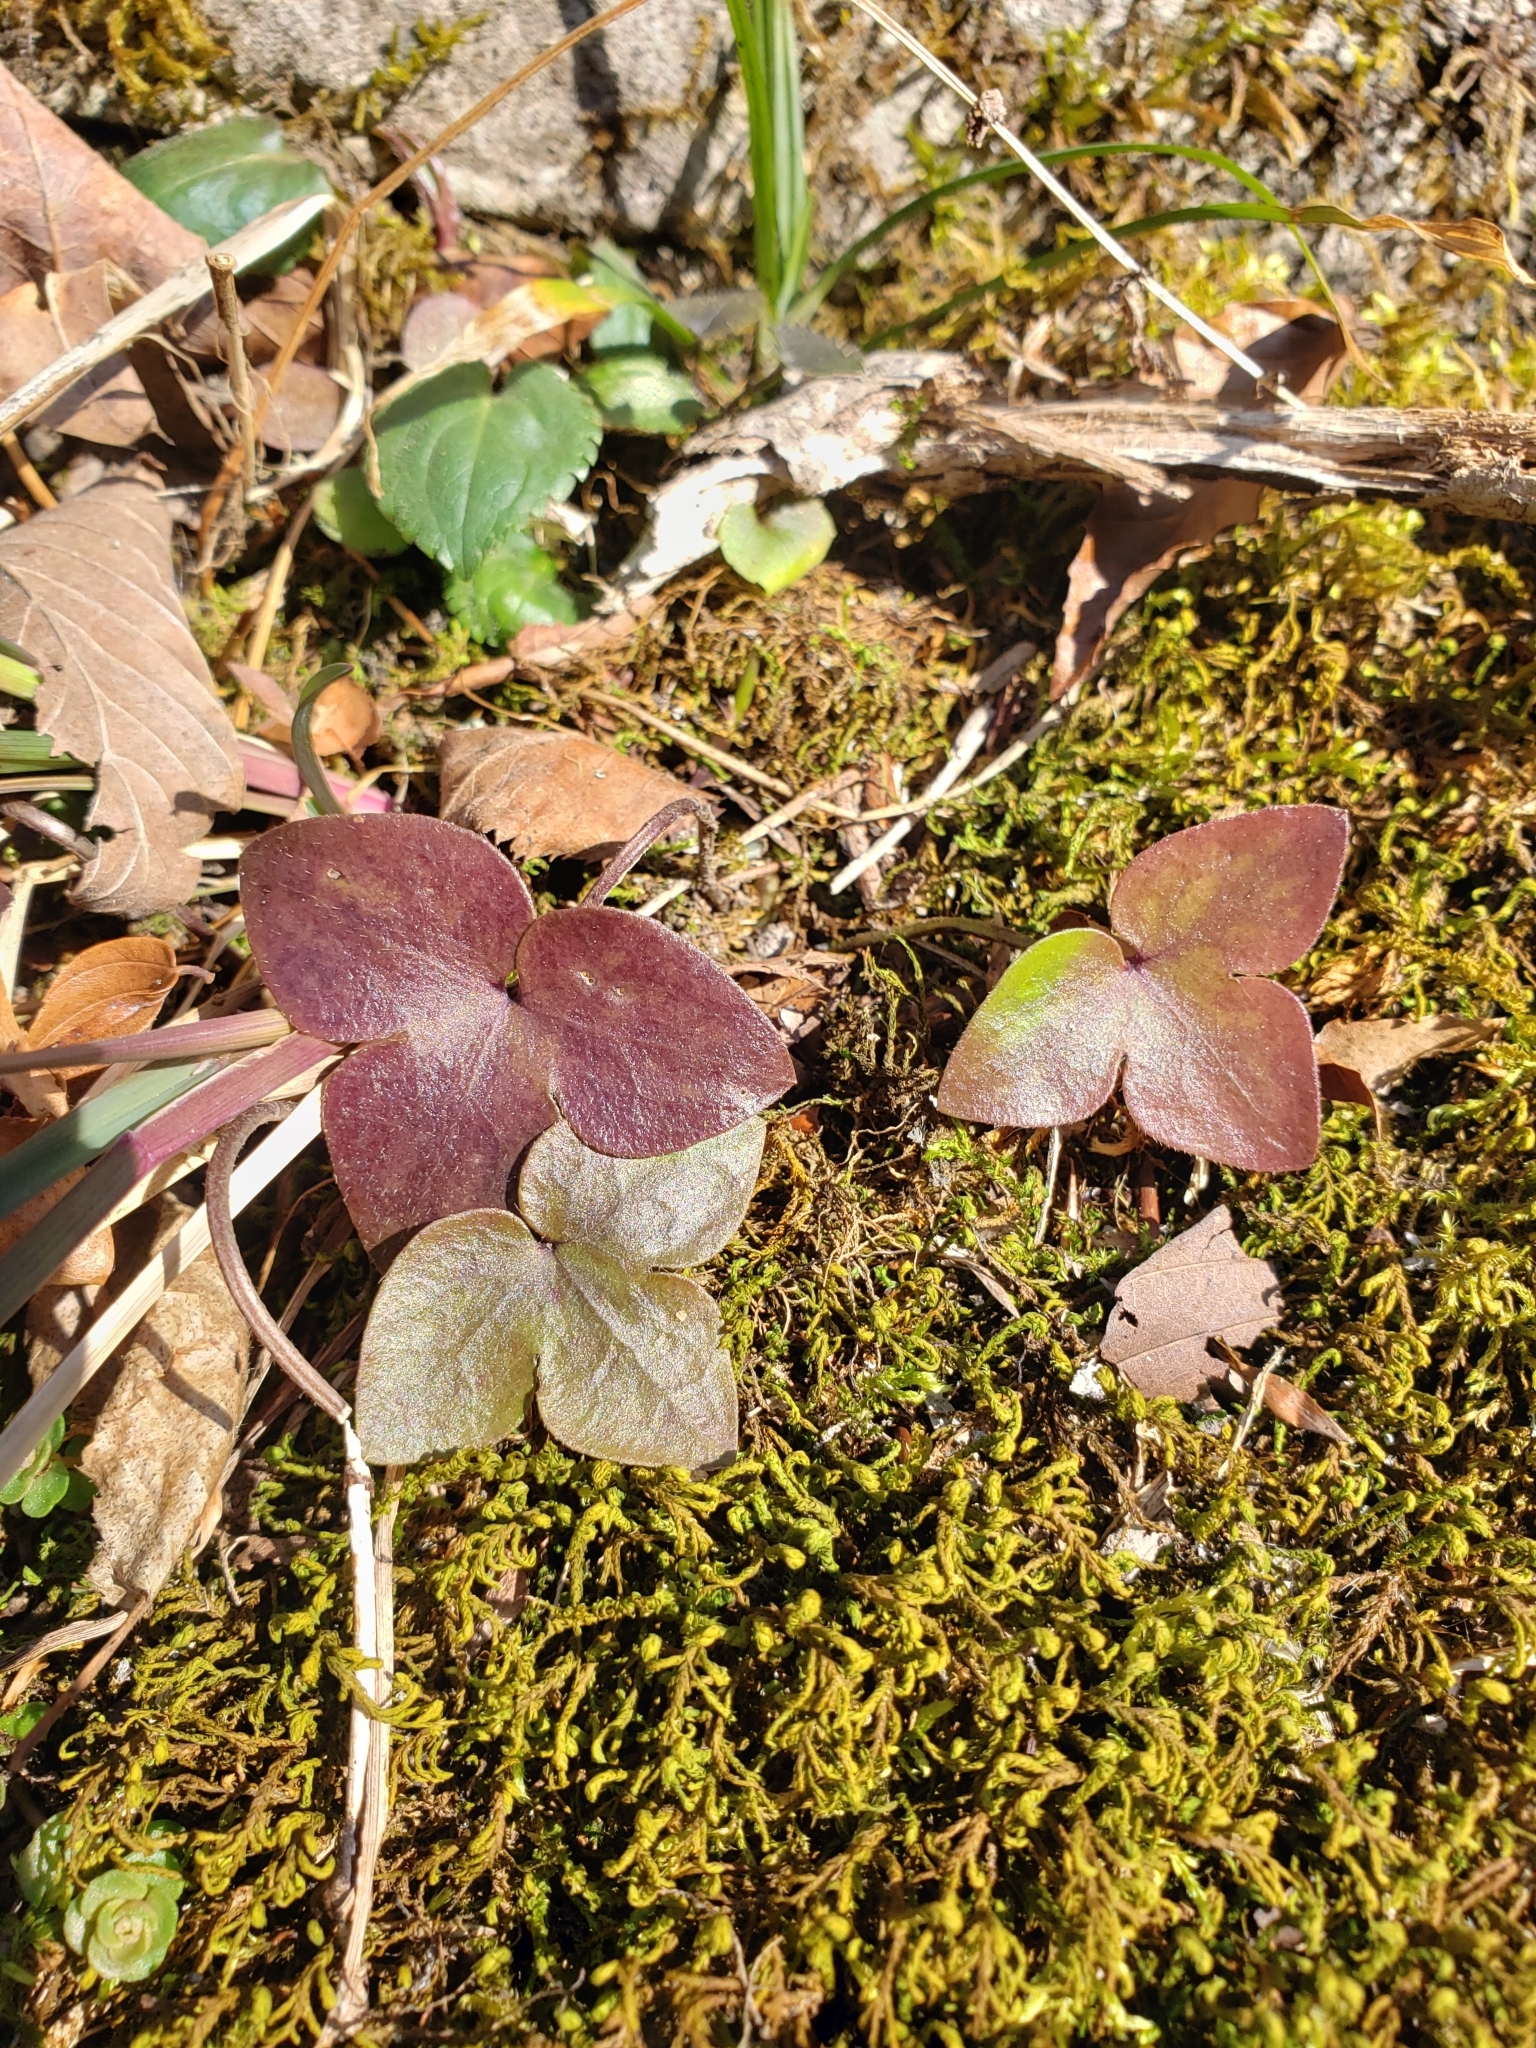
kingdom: Plantae
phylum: Tracheophyta
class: Magnoliopsida
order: Ranunculales
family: Ranunculaceae
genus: Hepatica
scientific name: Hepatica acutiloba
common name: Sharp-lobed hepatica
